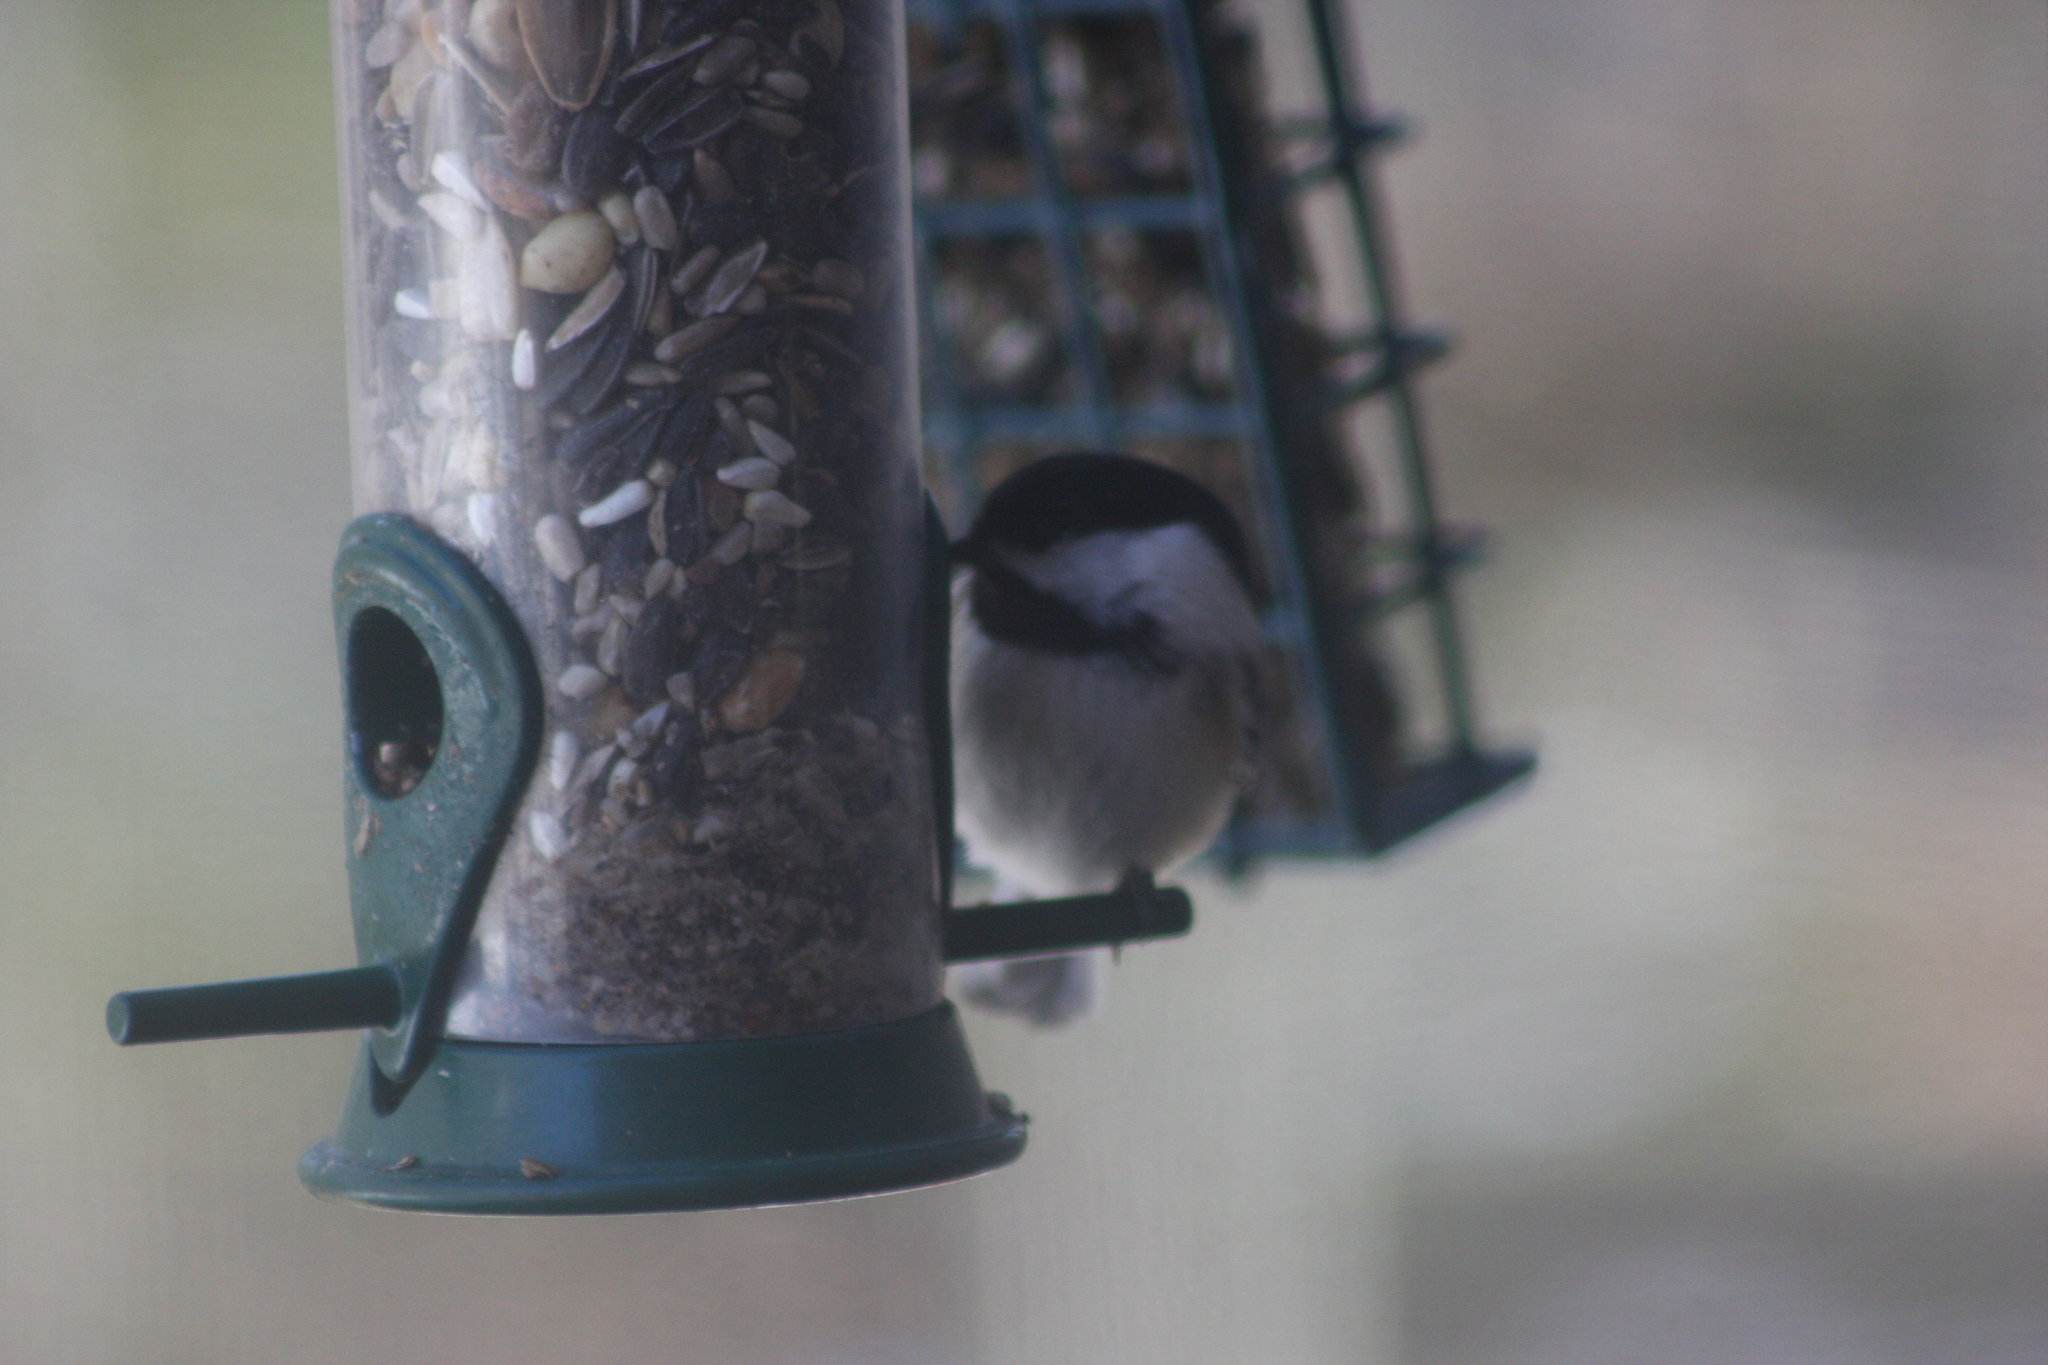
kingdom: Animalia
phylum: Chordata
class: Aves
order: Passeriformes
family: Paridae
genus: Poecile
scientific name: Poecile atricapillus
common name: Black-capped chickadee
